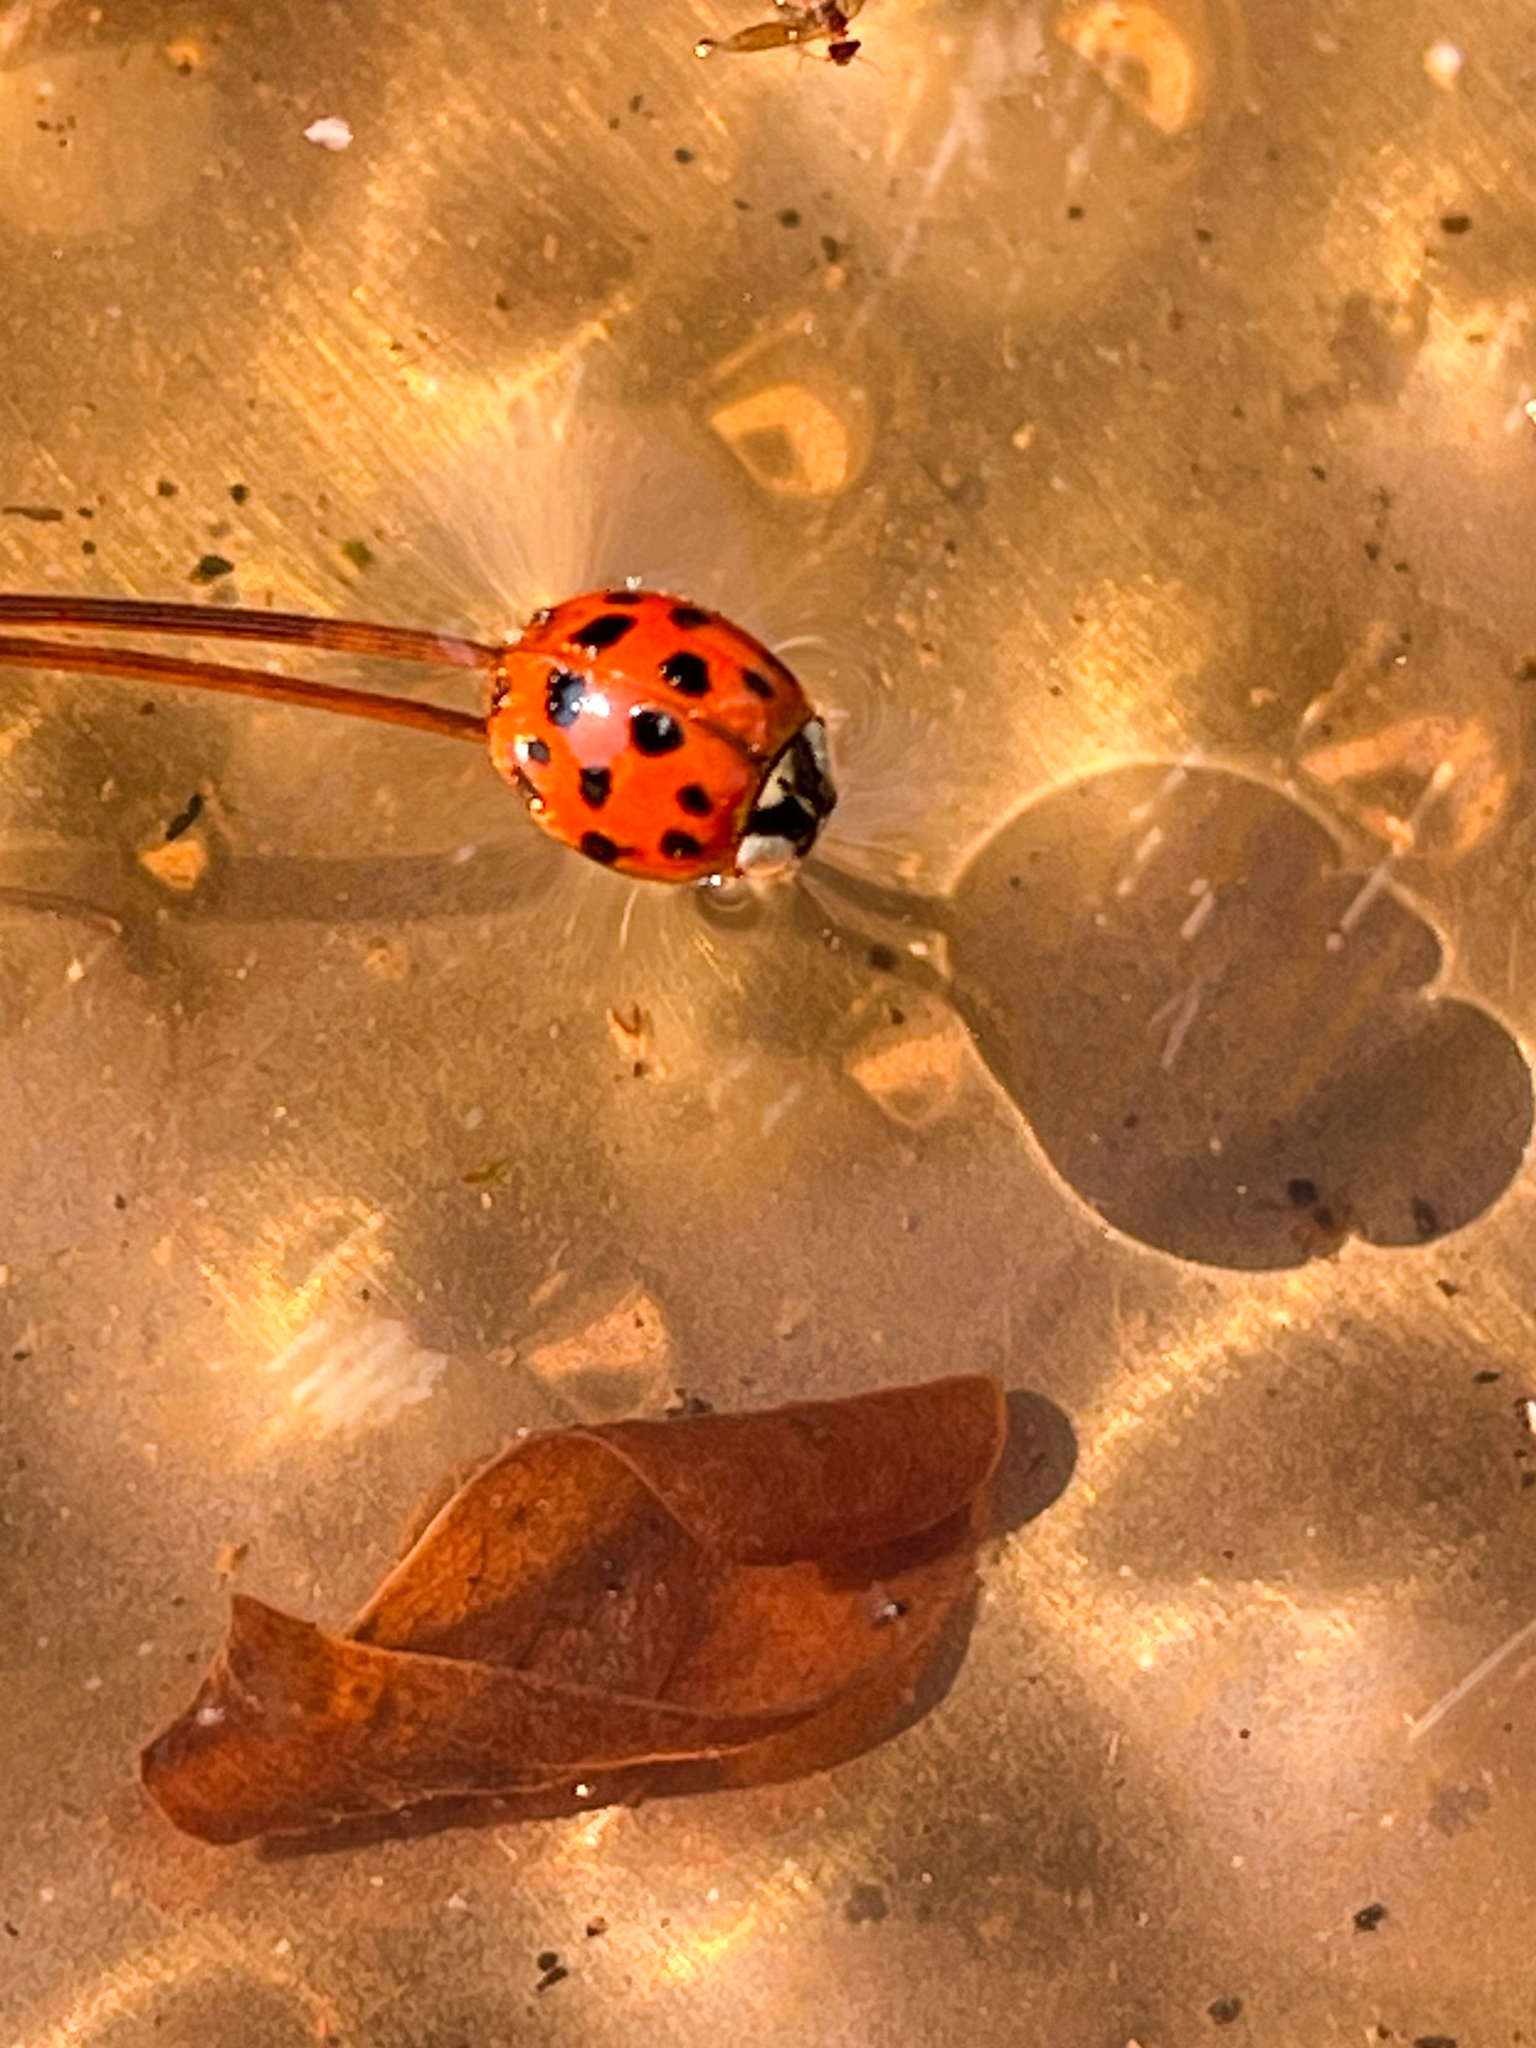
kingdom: Animalia
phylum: Arthropoda
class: Insecta
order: Coleoptera
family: Coccinellidae
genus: Harmonia
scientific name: Harmonia axyridis
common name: Harlequin ladybird
